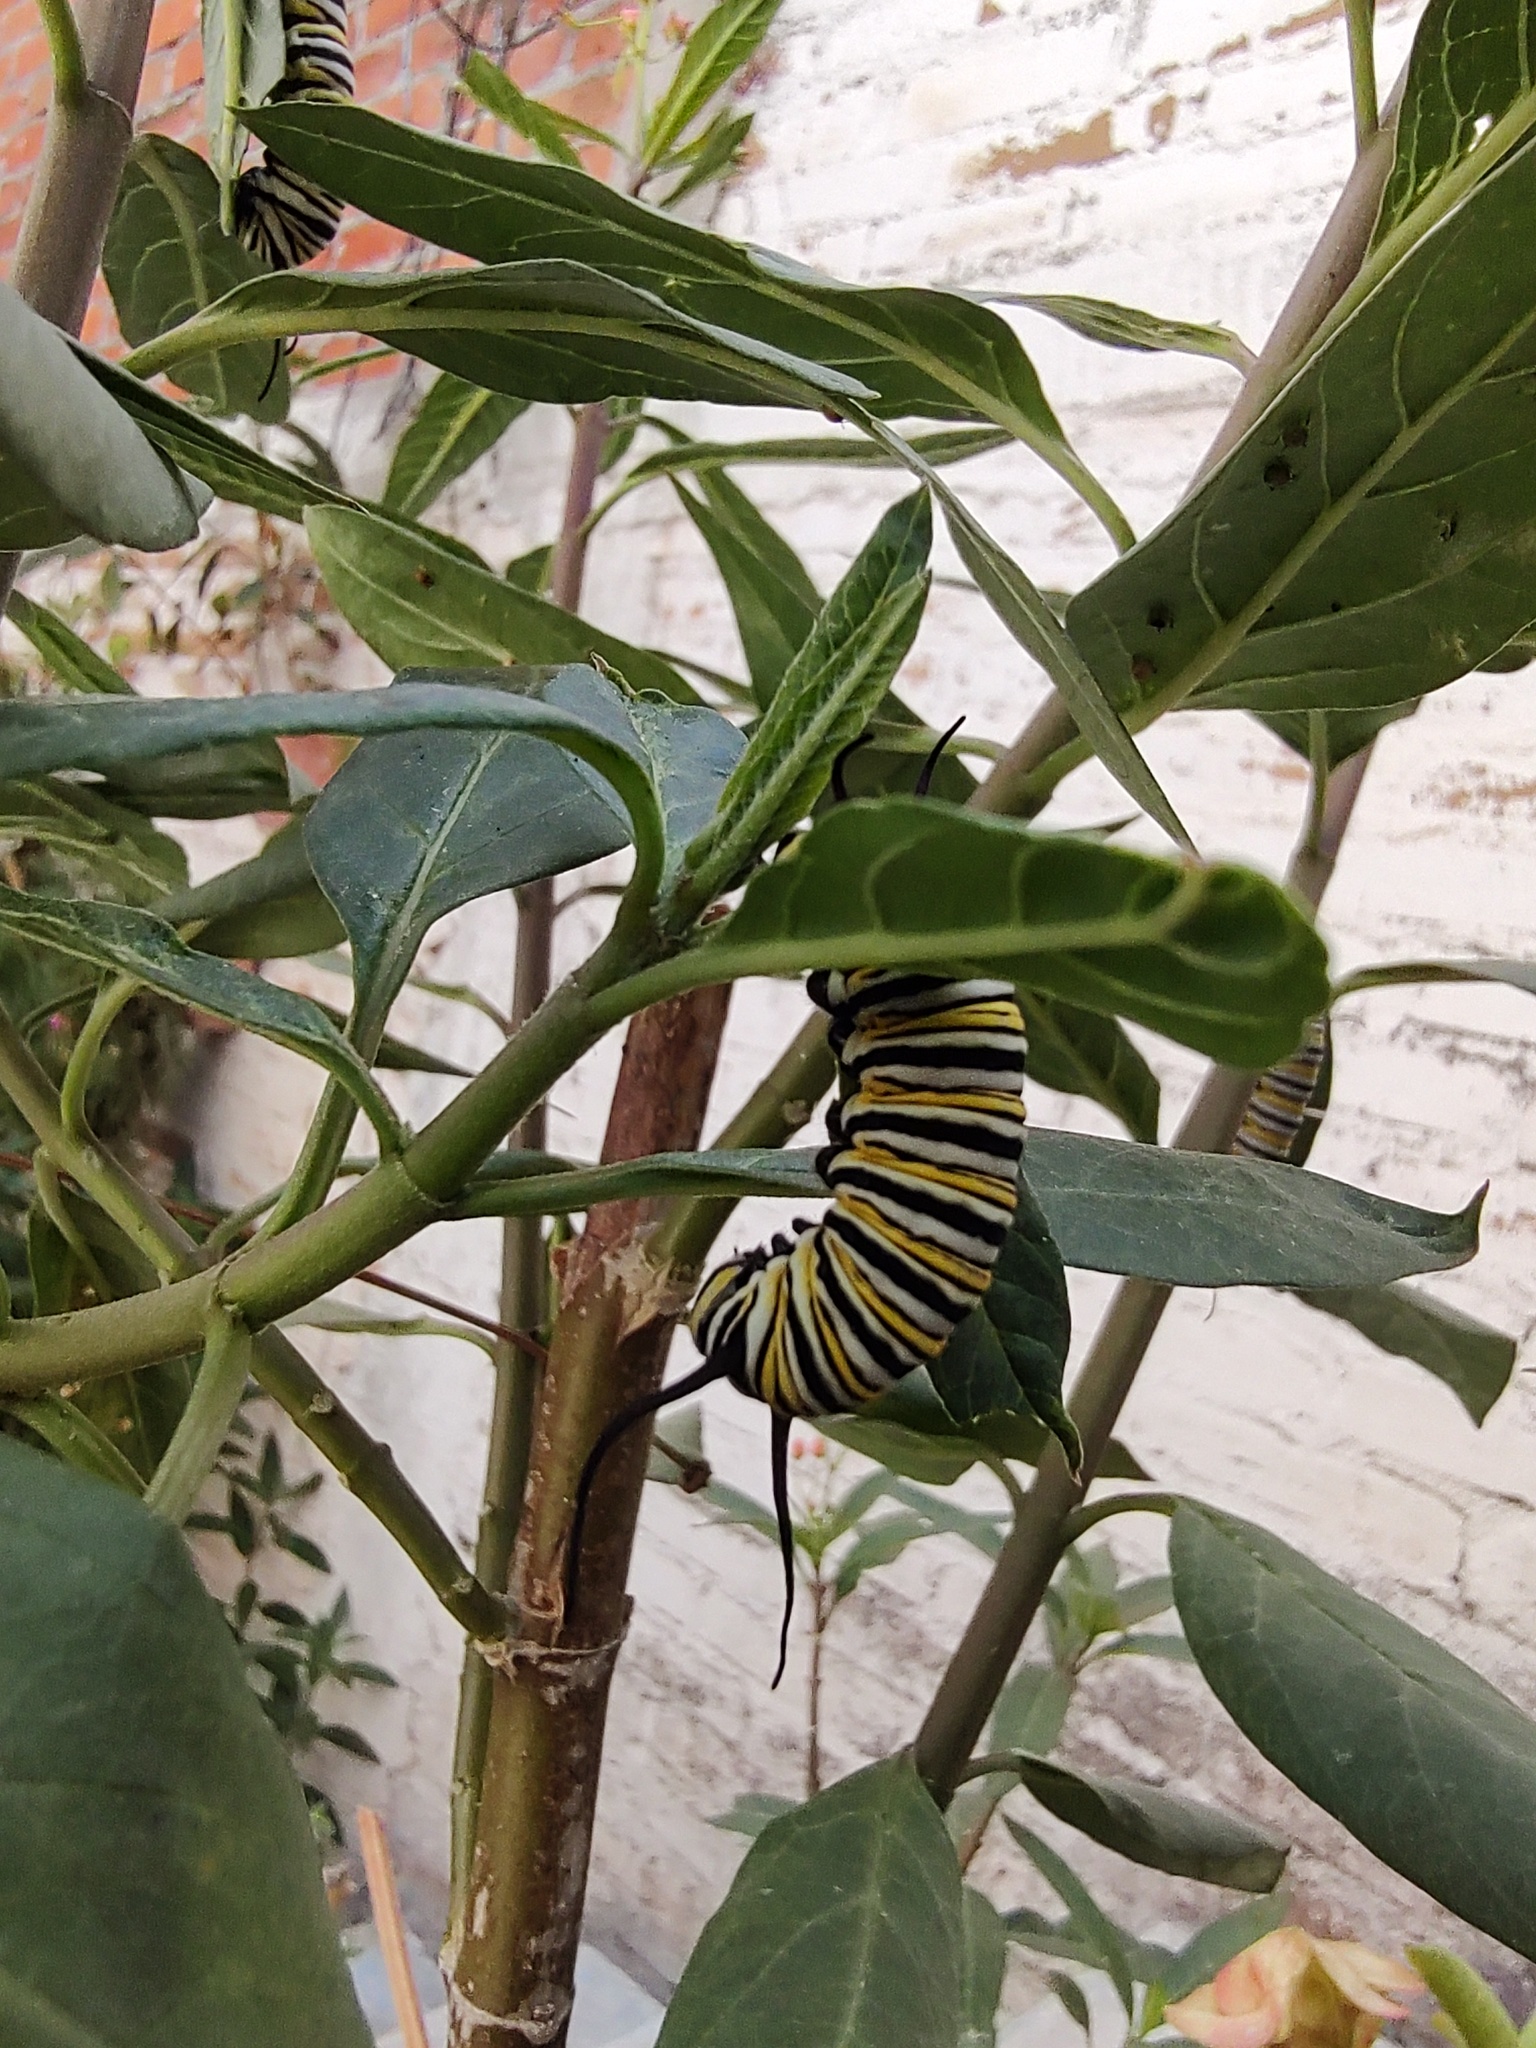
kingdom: Animalia
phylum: Arthropoda
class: Insecta
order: Lepidoptera
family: Nymphalidae
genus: Danaus
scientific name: Danaus plexippus
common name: Monarch
